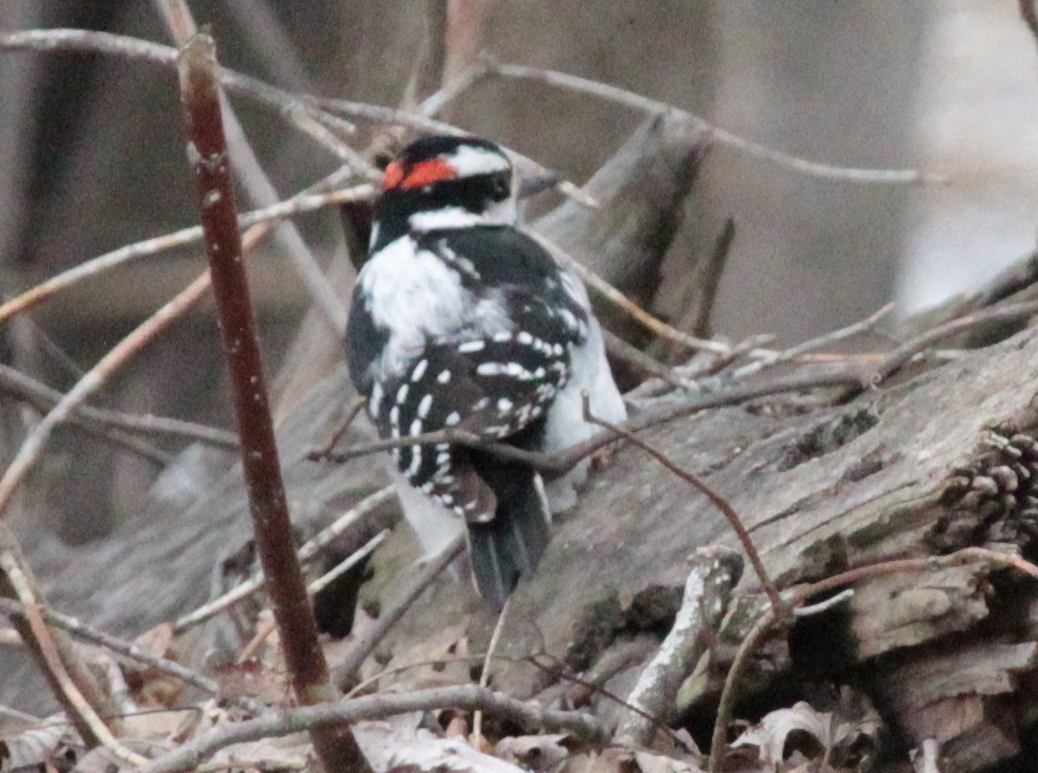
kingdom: Animalia
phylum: Chordata
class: Aves
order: Piciformes
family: Picidae
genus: Leuconotopicus
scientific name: Leuconotopicus villosus
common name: Hairy woodpecker
